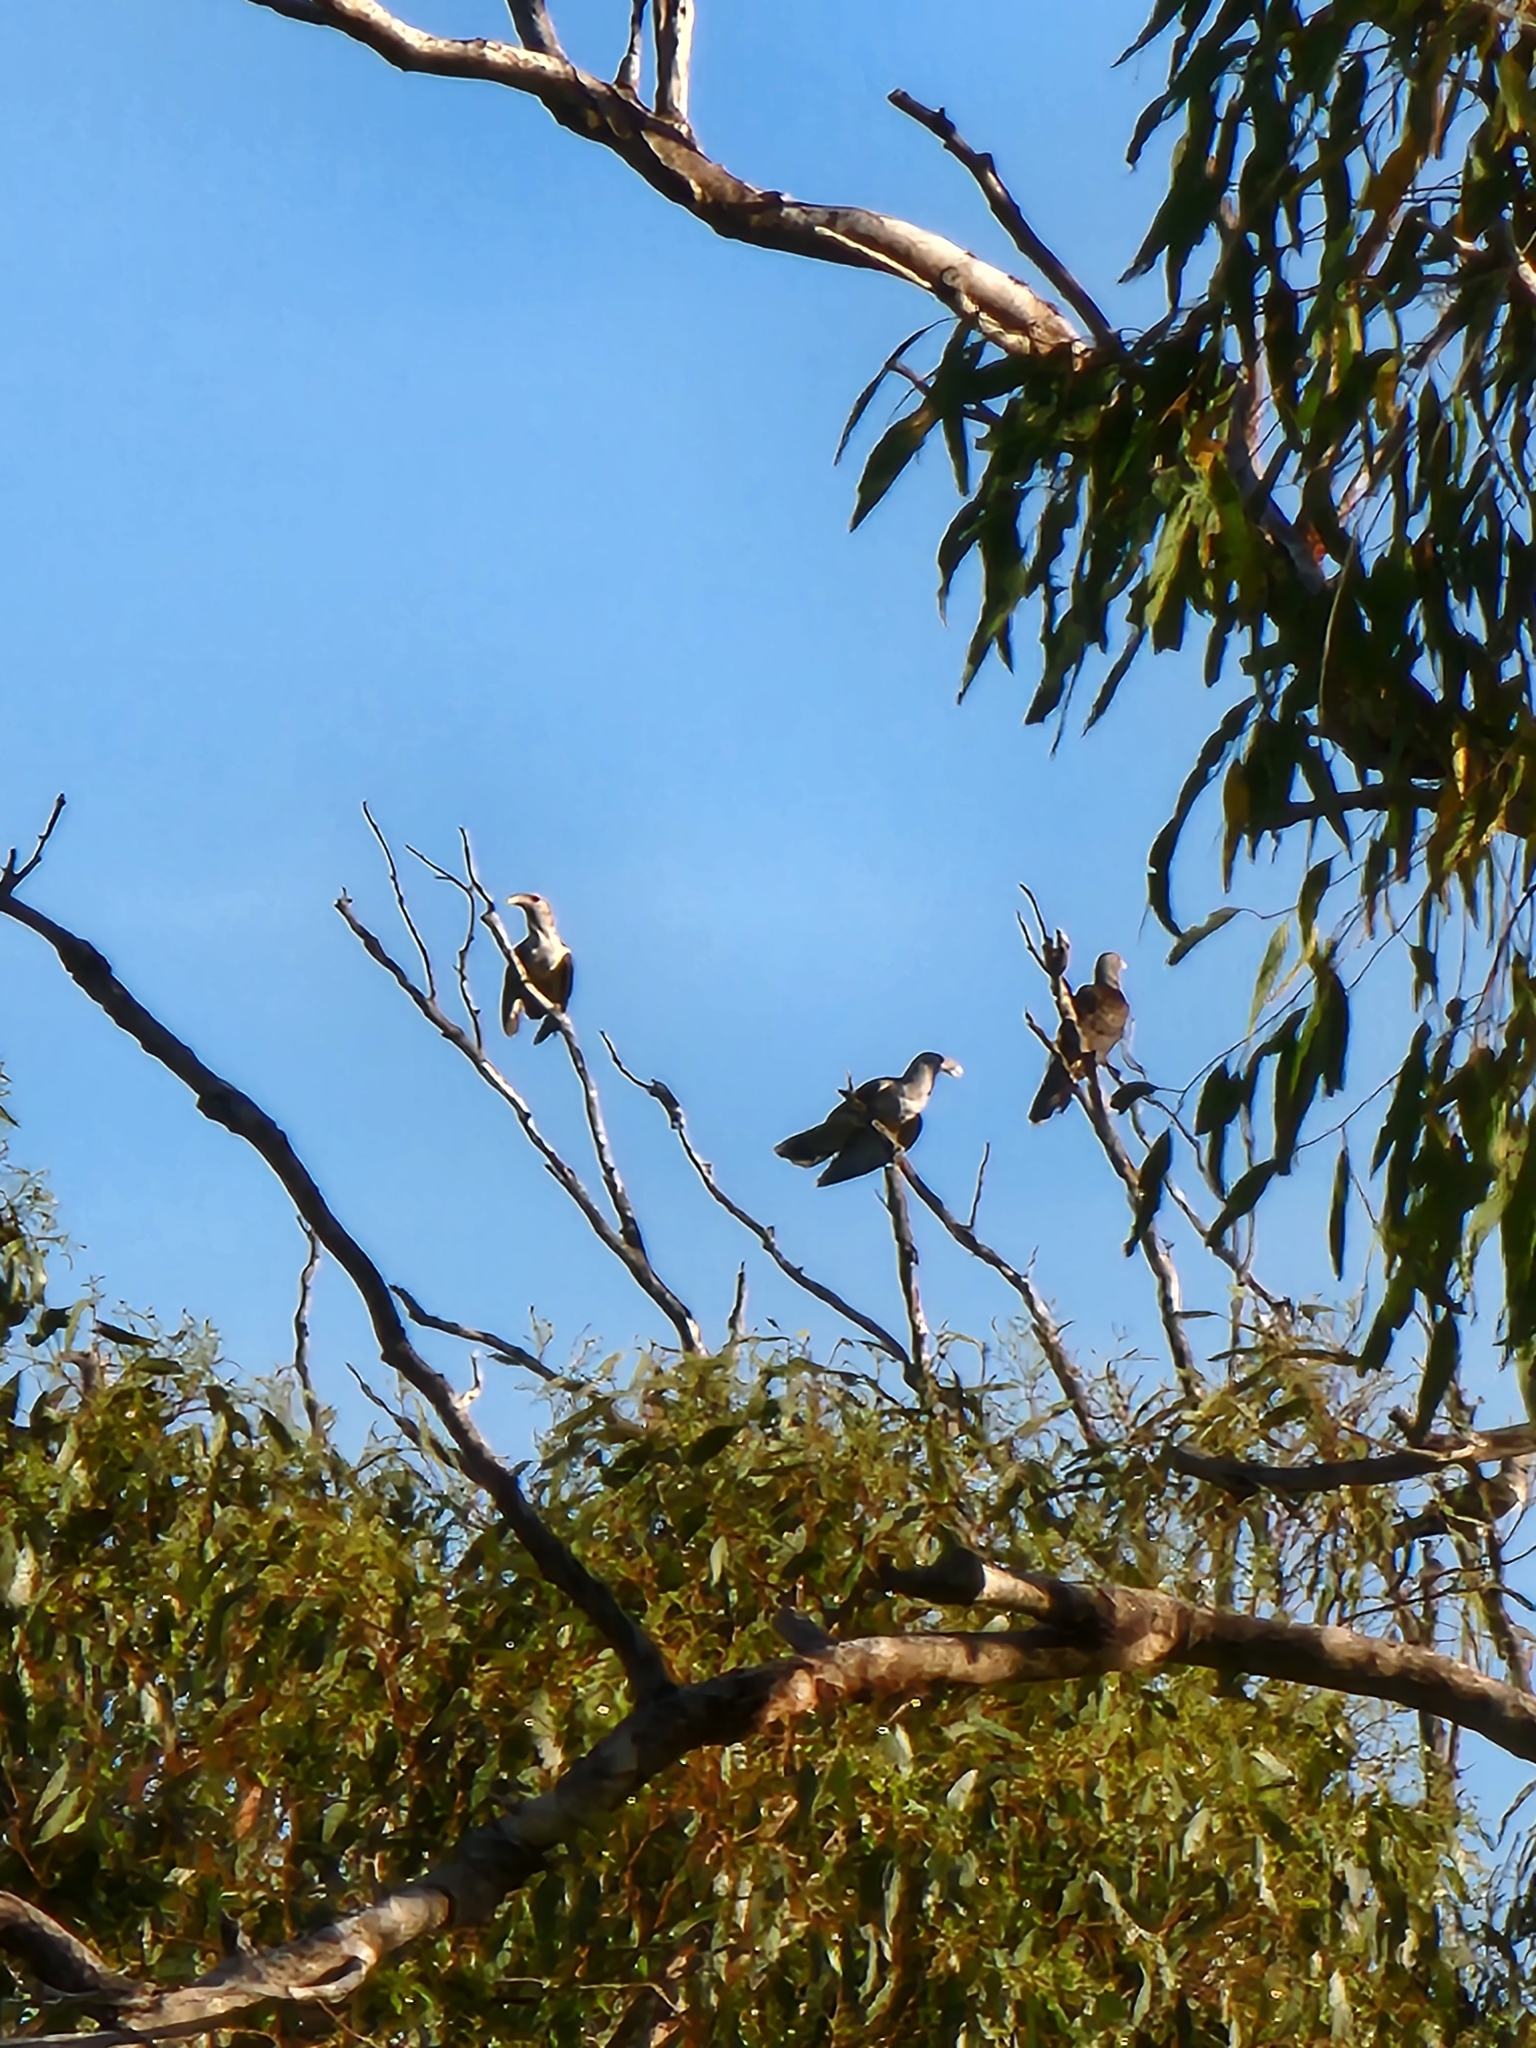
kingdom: Animalia
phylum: Chordata
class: Aves
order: Cuculiformes
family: Cuculidae
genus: Scythrops
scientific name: Scythrops novaehollandiae
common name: Channel-billed cuckoo
